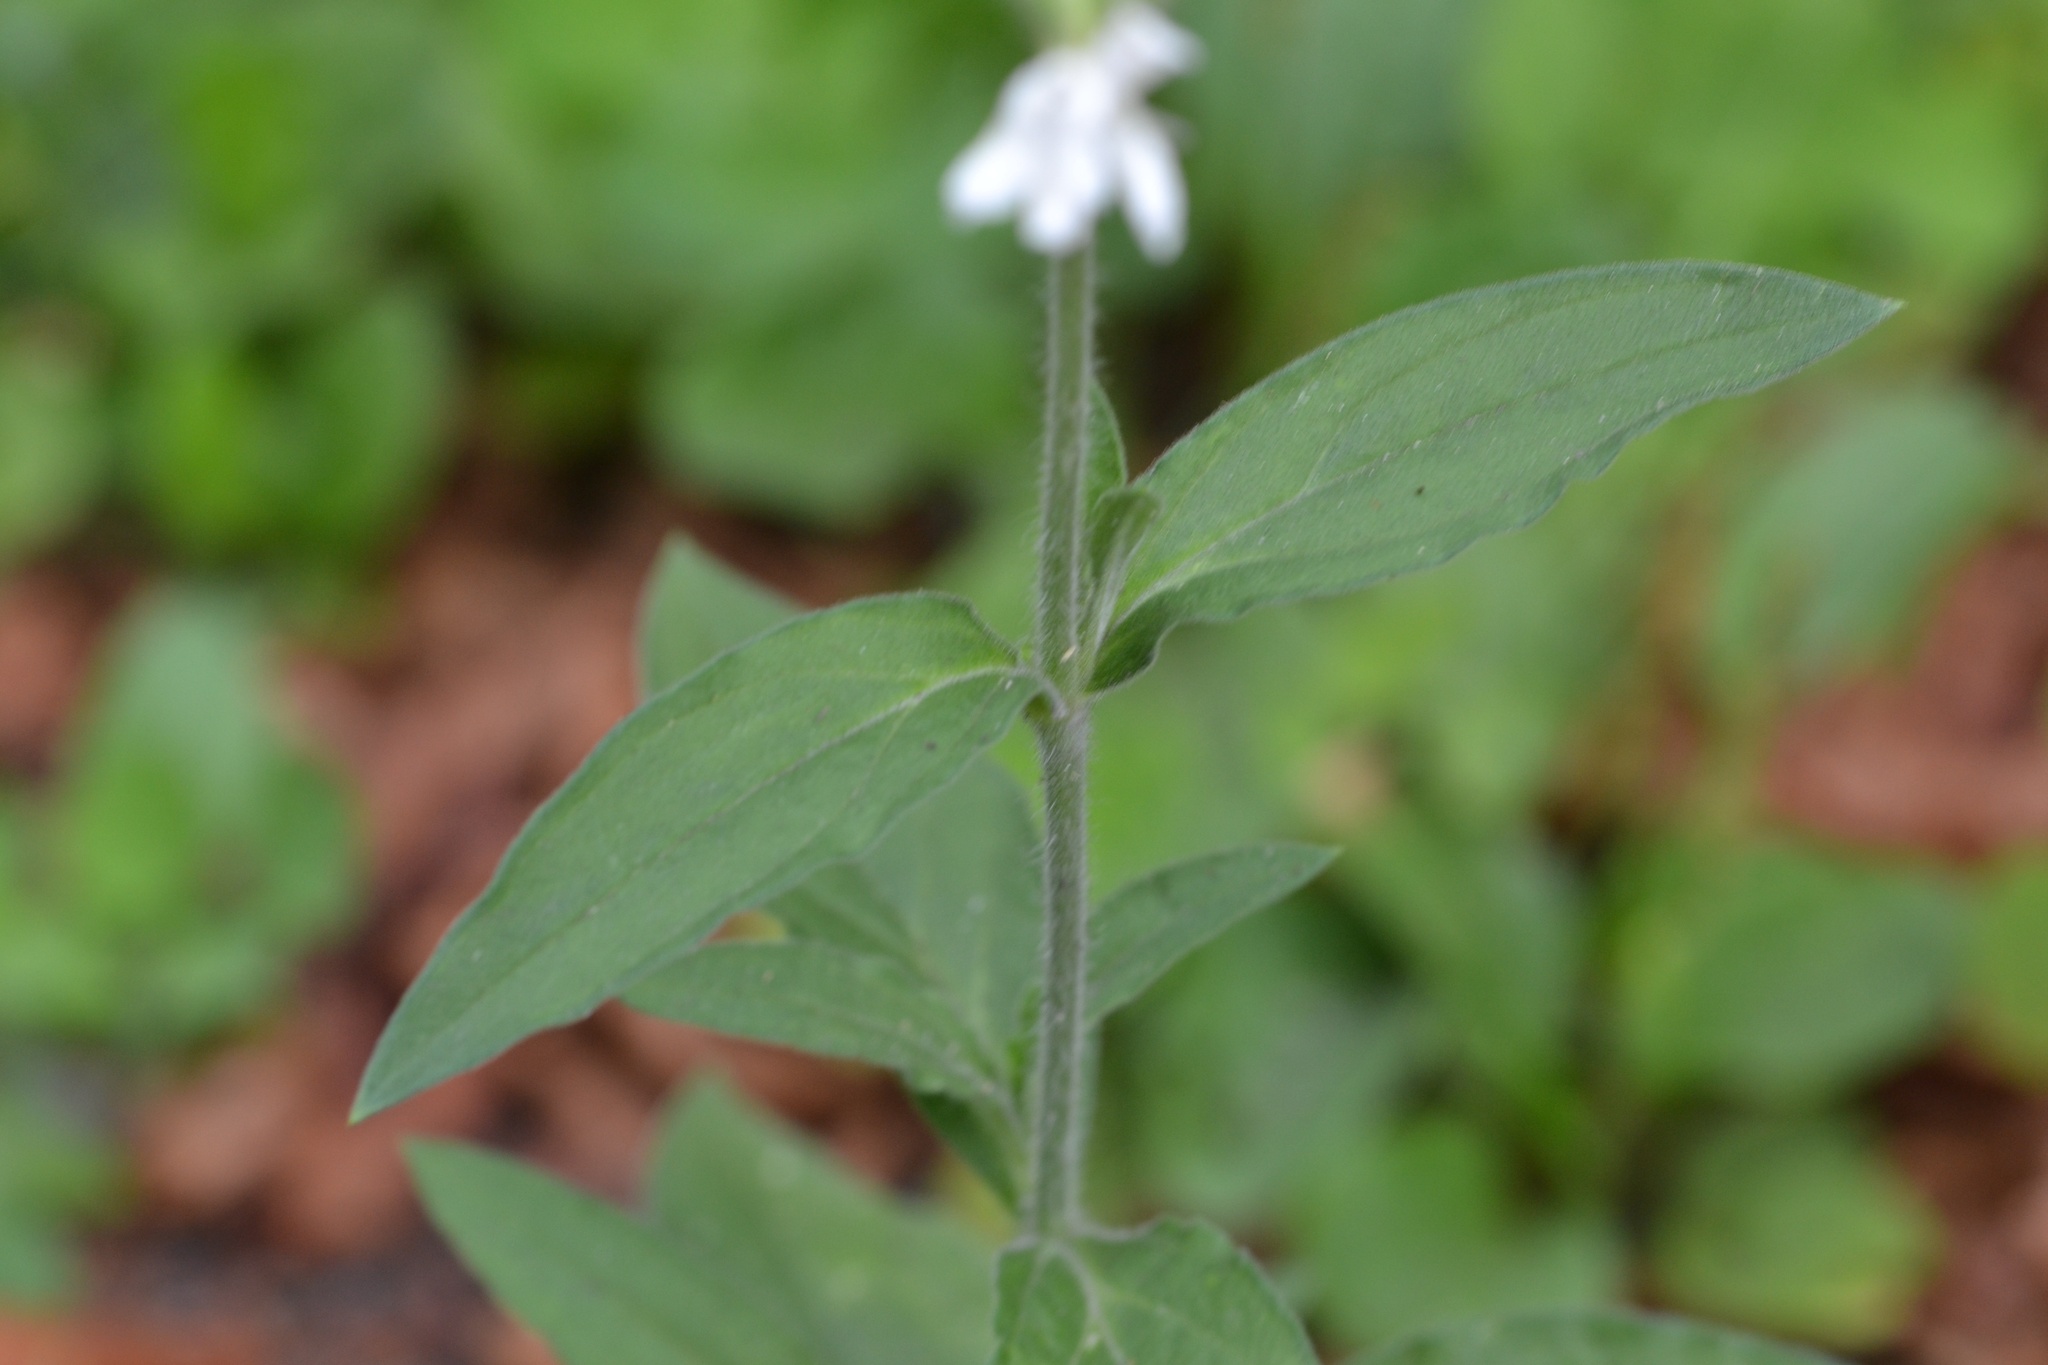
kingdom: Plantae
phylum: Tracheophyta
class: Magnoliopsida
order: Caryophyllales
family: Caryophyllaceae
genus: Silene
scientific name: Silene latifolia
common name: White campion
